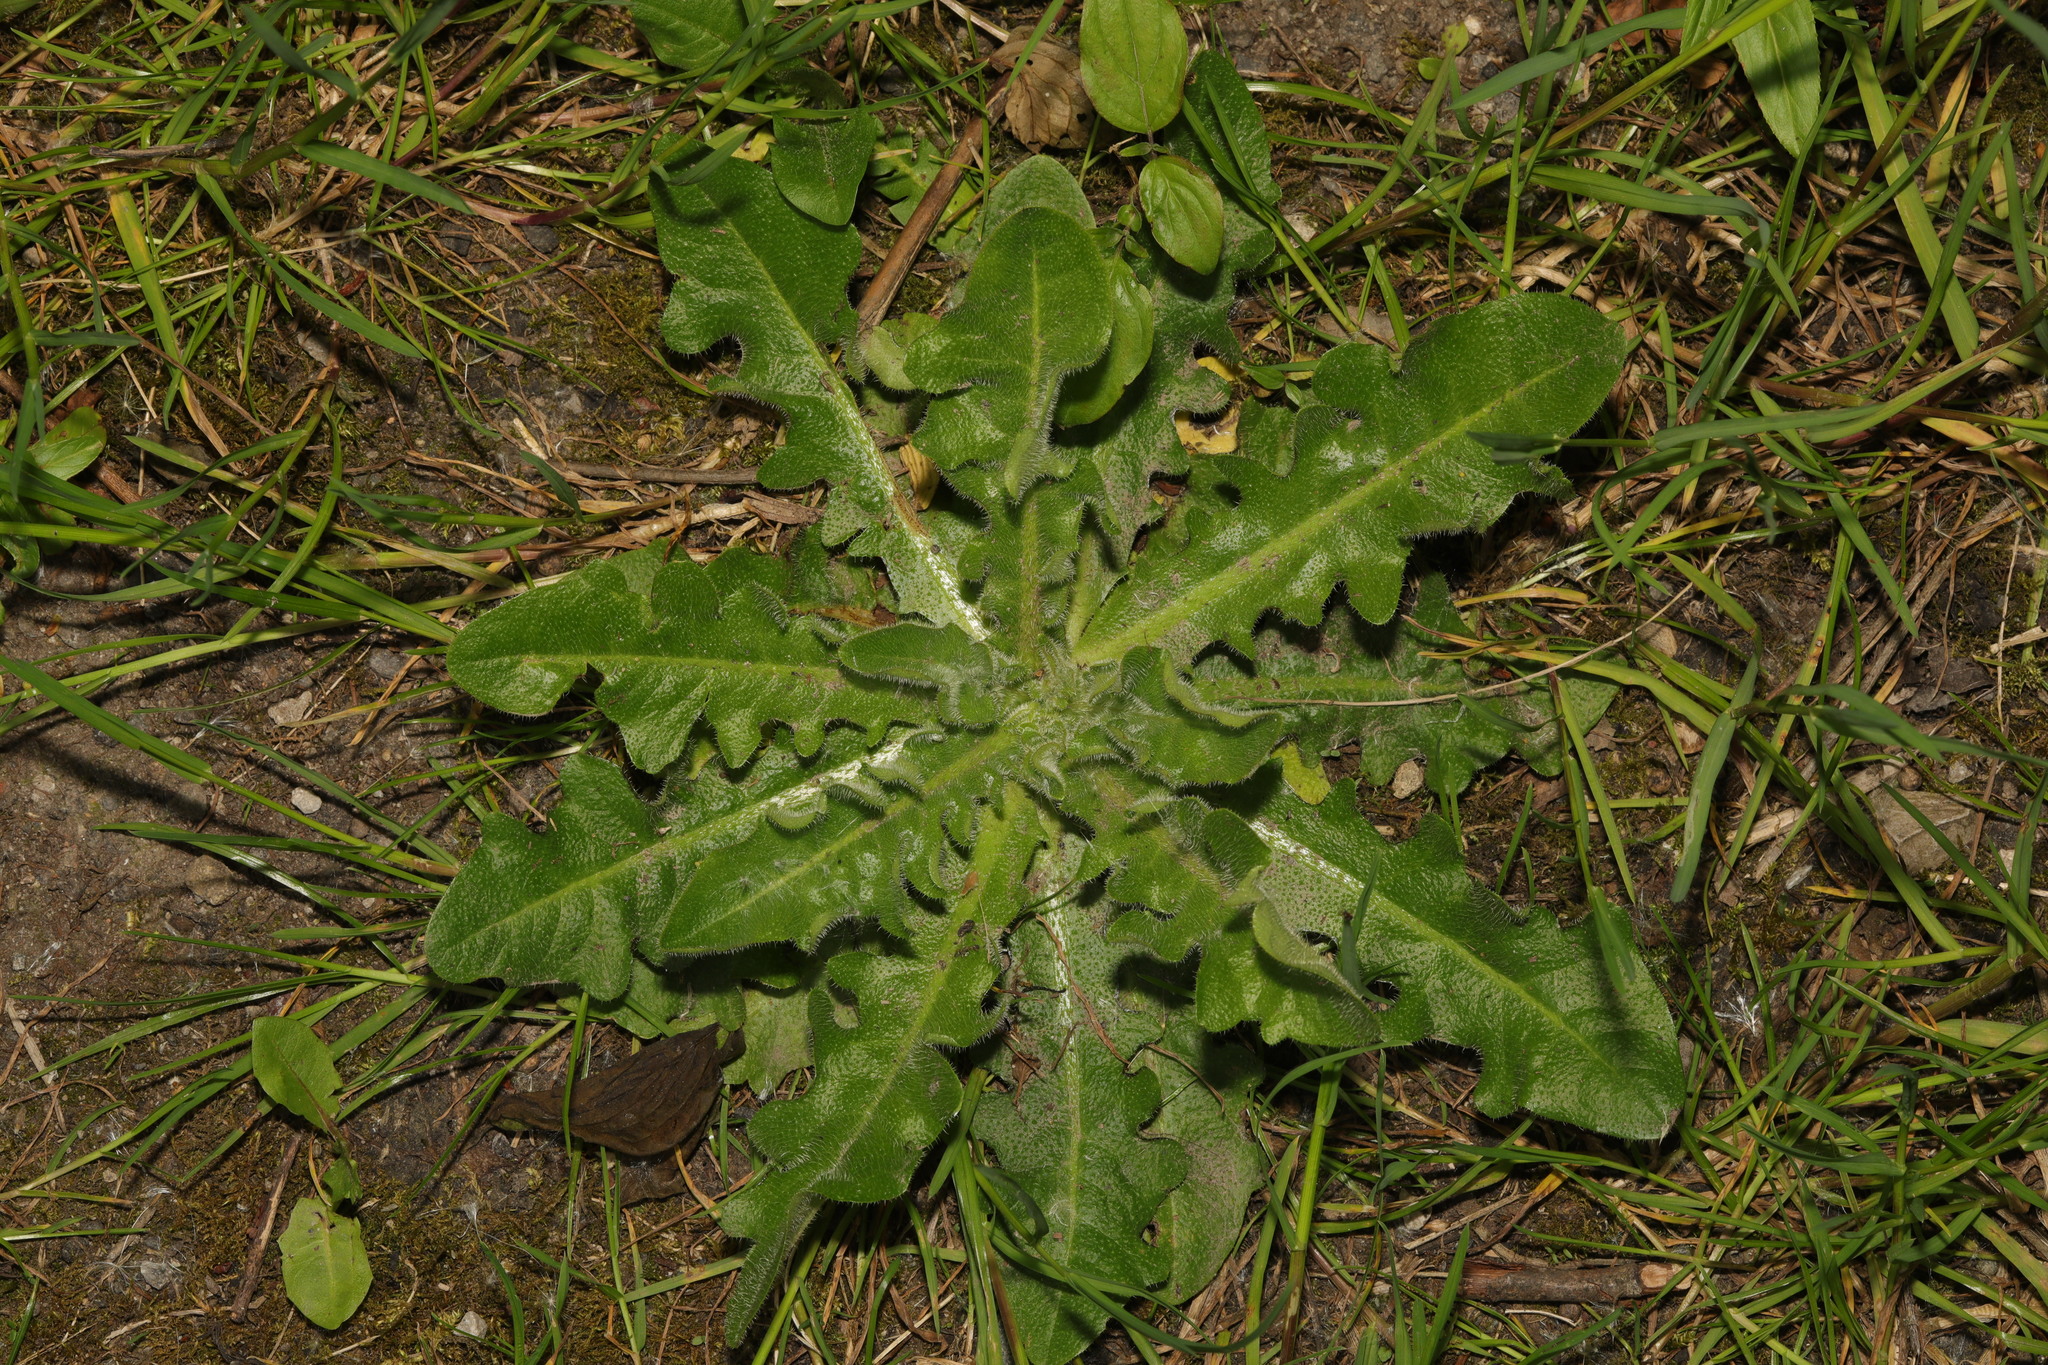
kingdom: Plantae
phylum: Tracheophyta
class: Magnoliopsida
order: Asterales
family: Asteraceae
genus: Hypochaeris
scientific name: Hypochaeris radicata
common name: Flatweed
